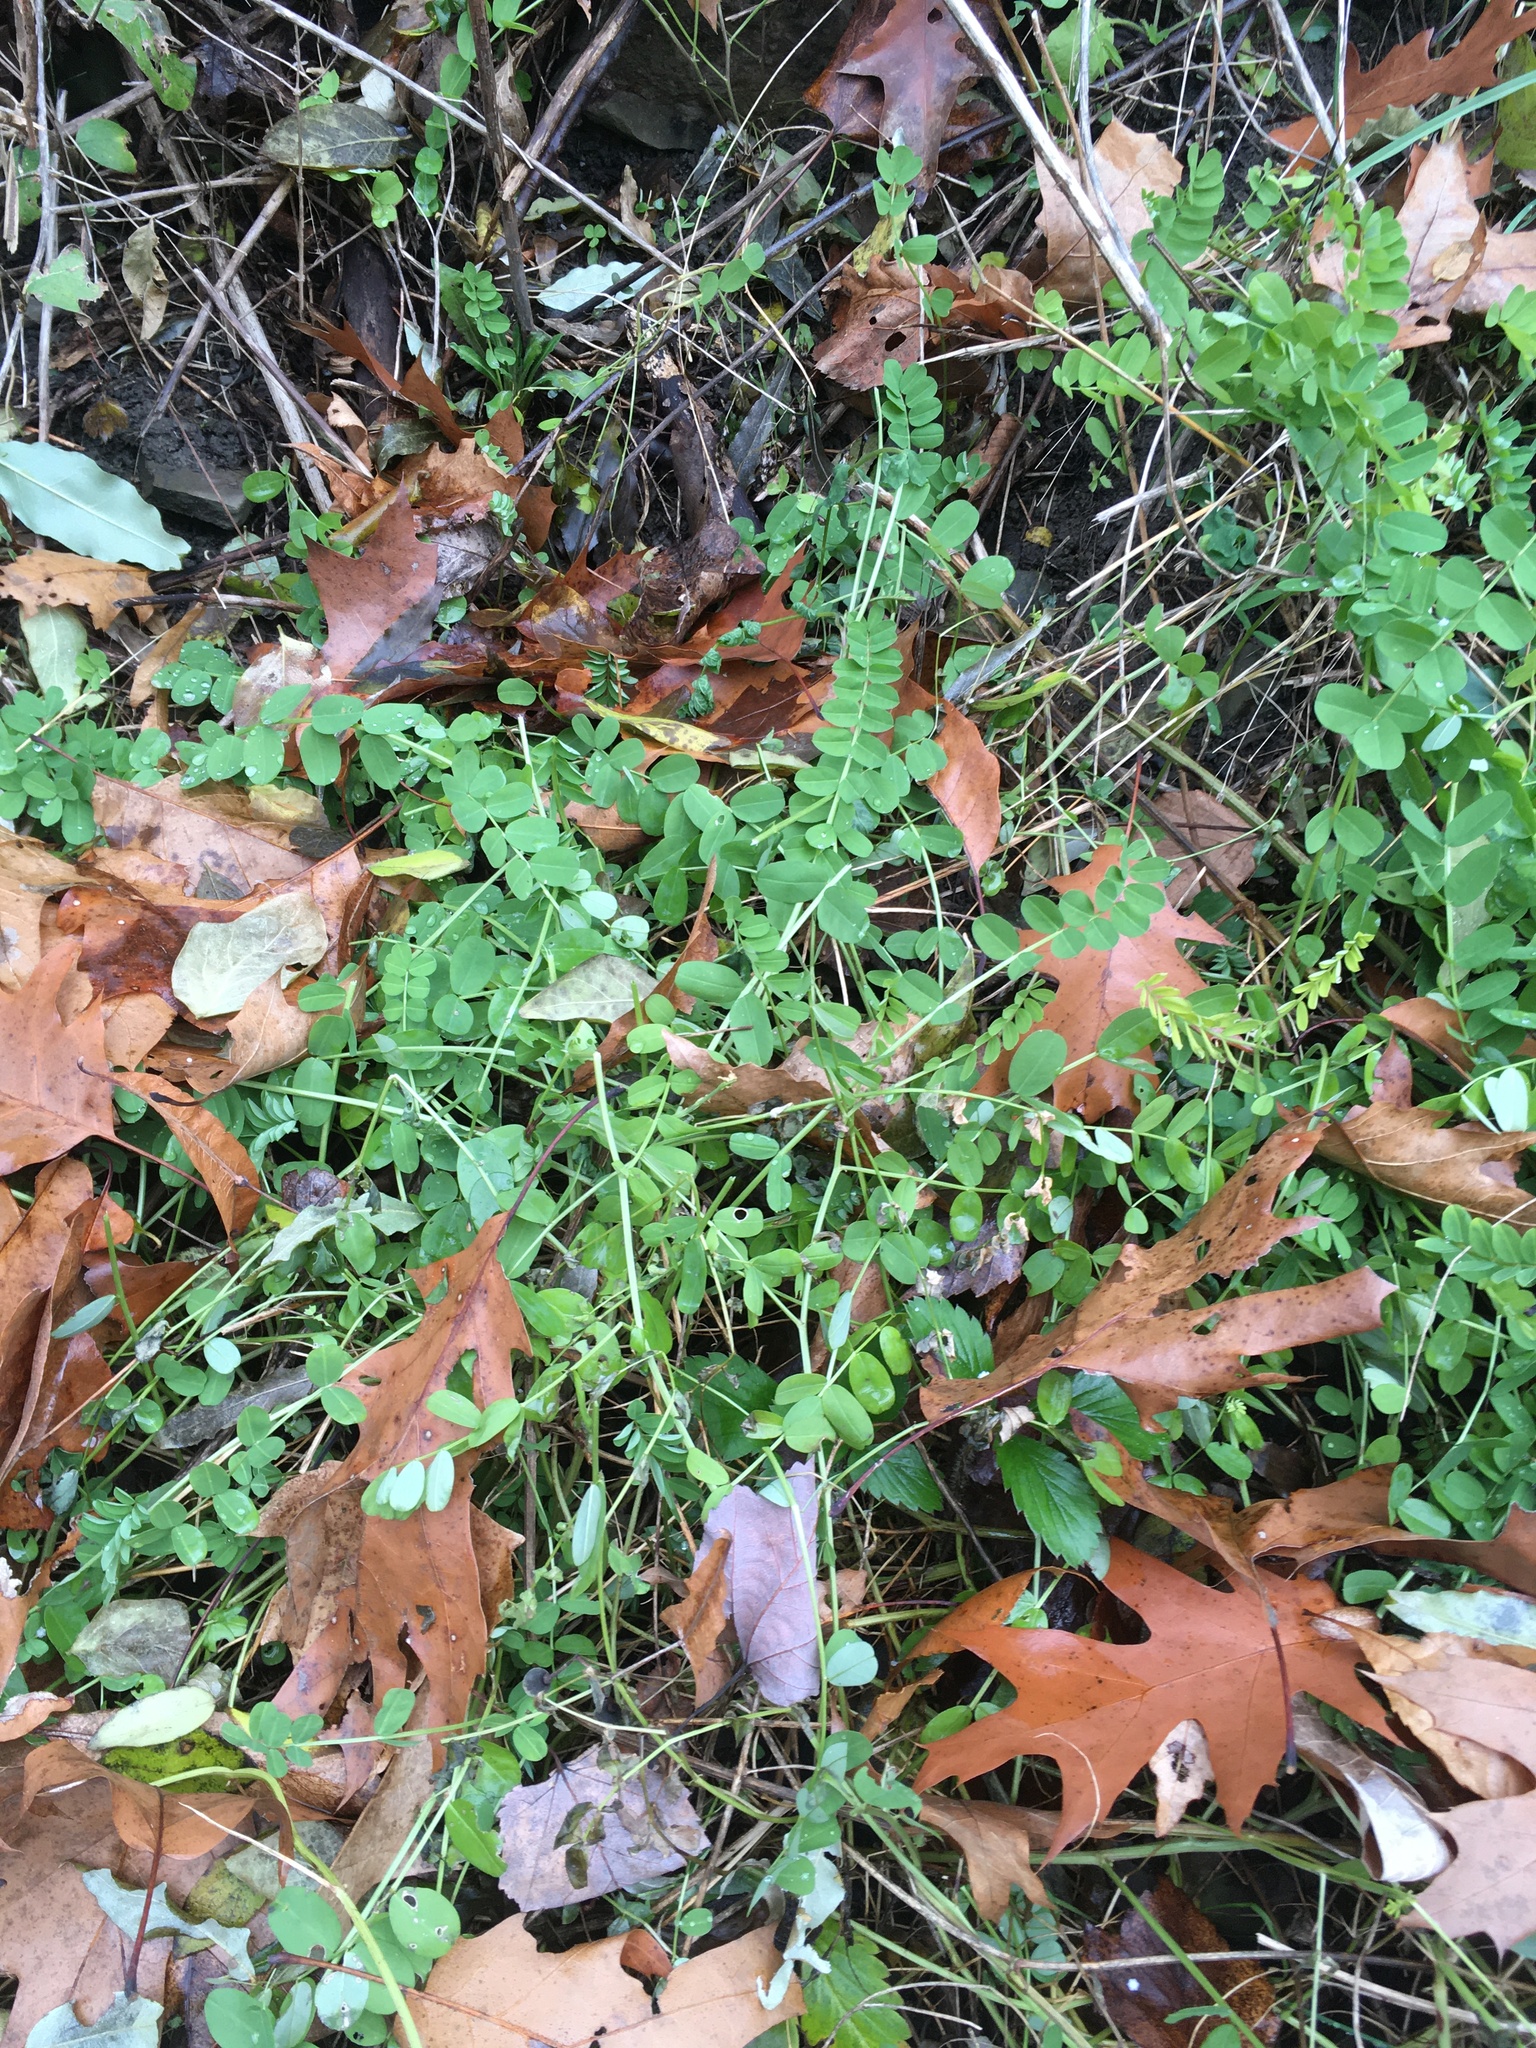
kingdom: Plantae
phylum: Tracheophyta
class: Magnoliopsida
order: Fabales
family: Fabaceae
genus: Coronilla
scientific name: Coronilla varia
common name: Crownvetch
